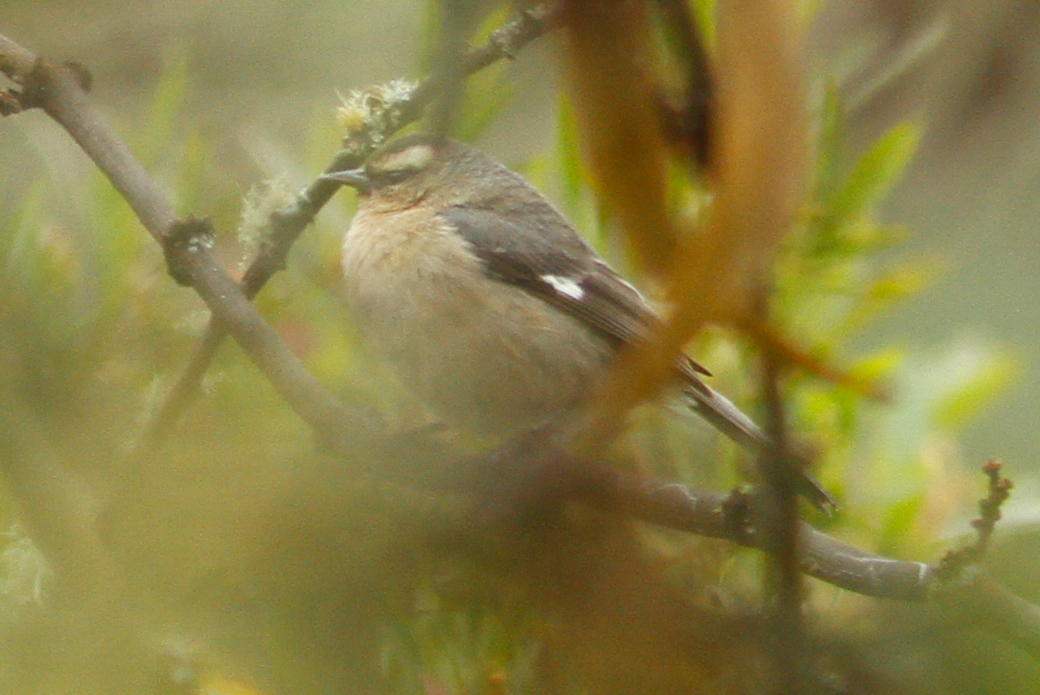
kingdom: Animalia
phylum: Chordata
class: Aves
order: Passeriformes
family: Thraupidae
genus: Conirostrum
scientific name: Conirostrum cinereum
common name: Cinereous conebill
